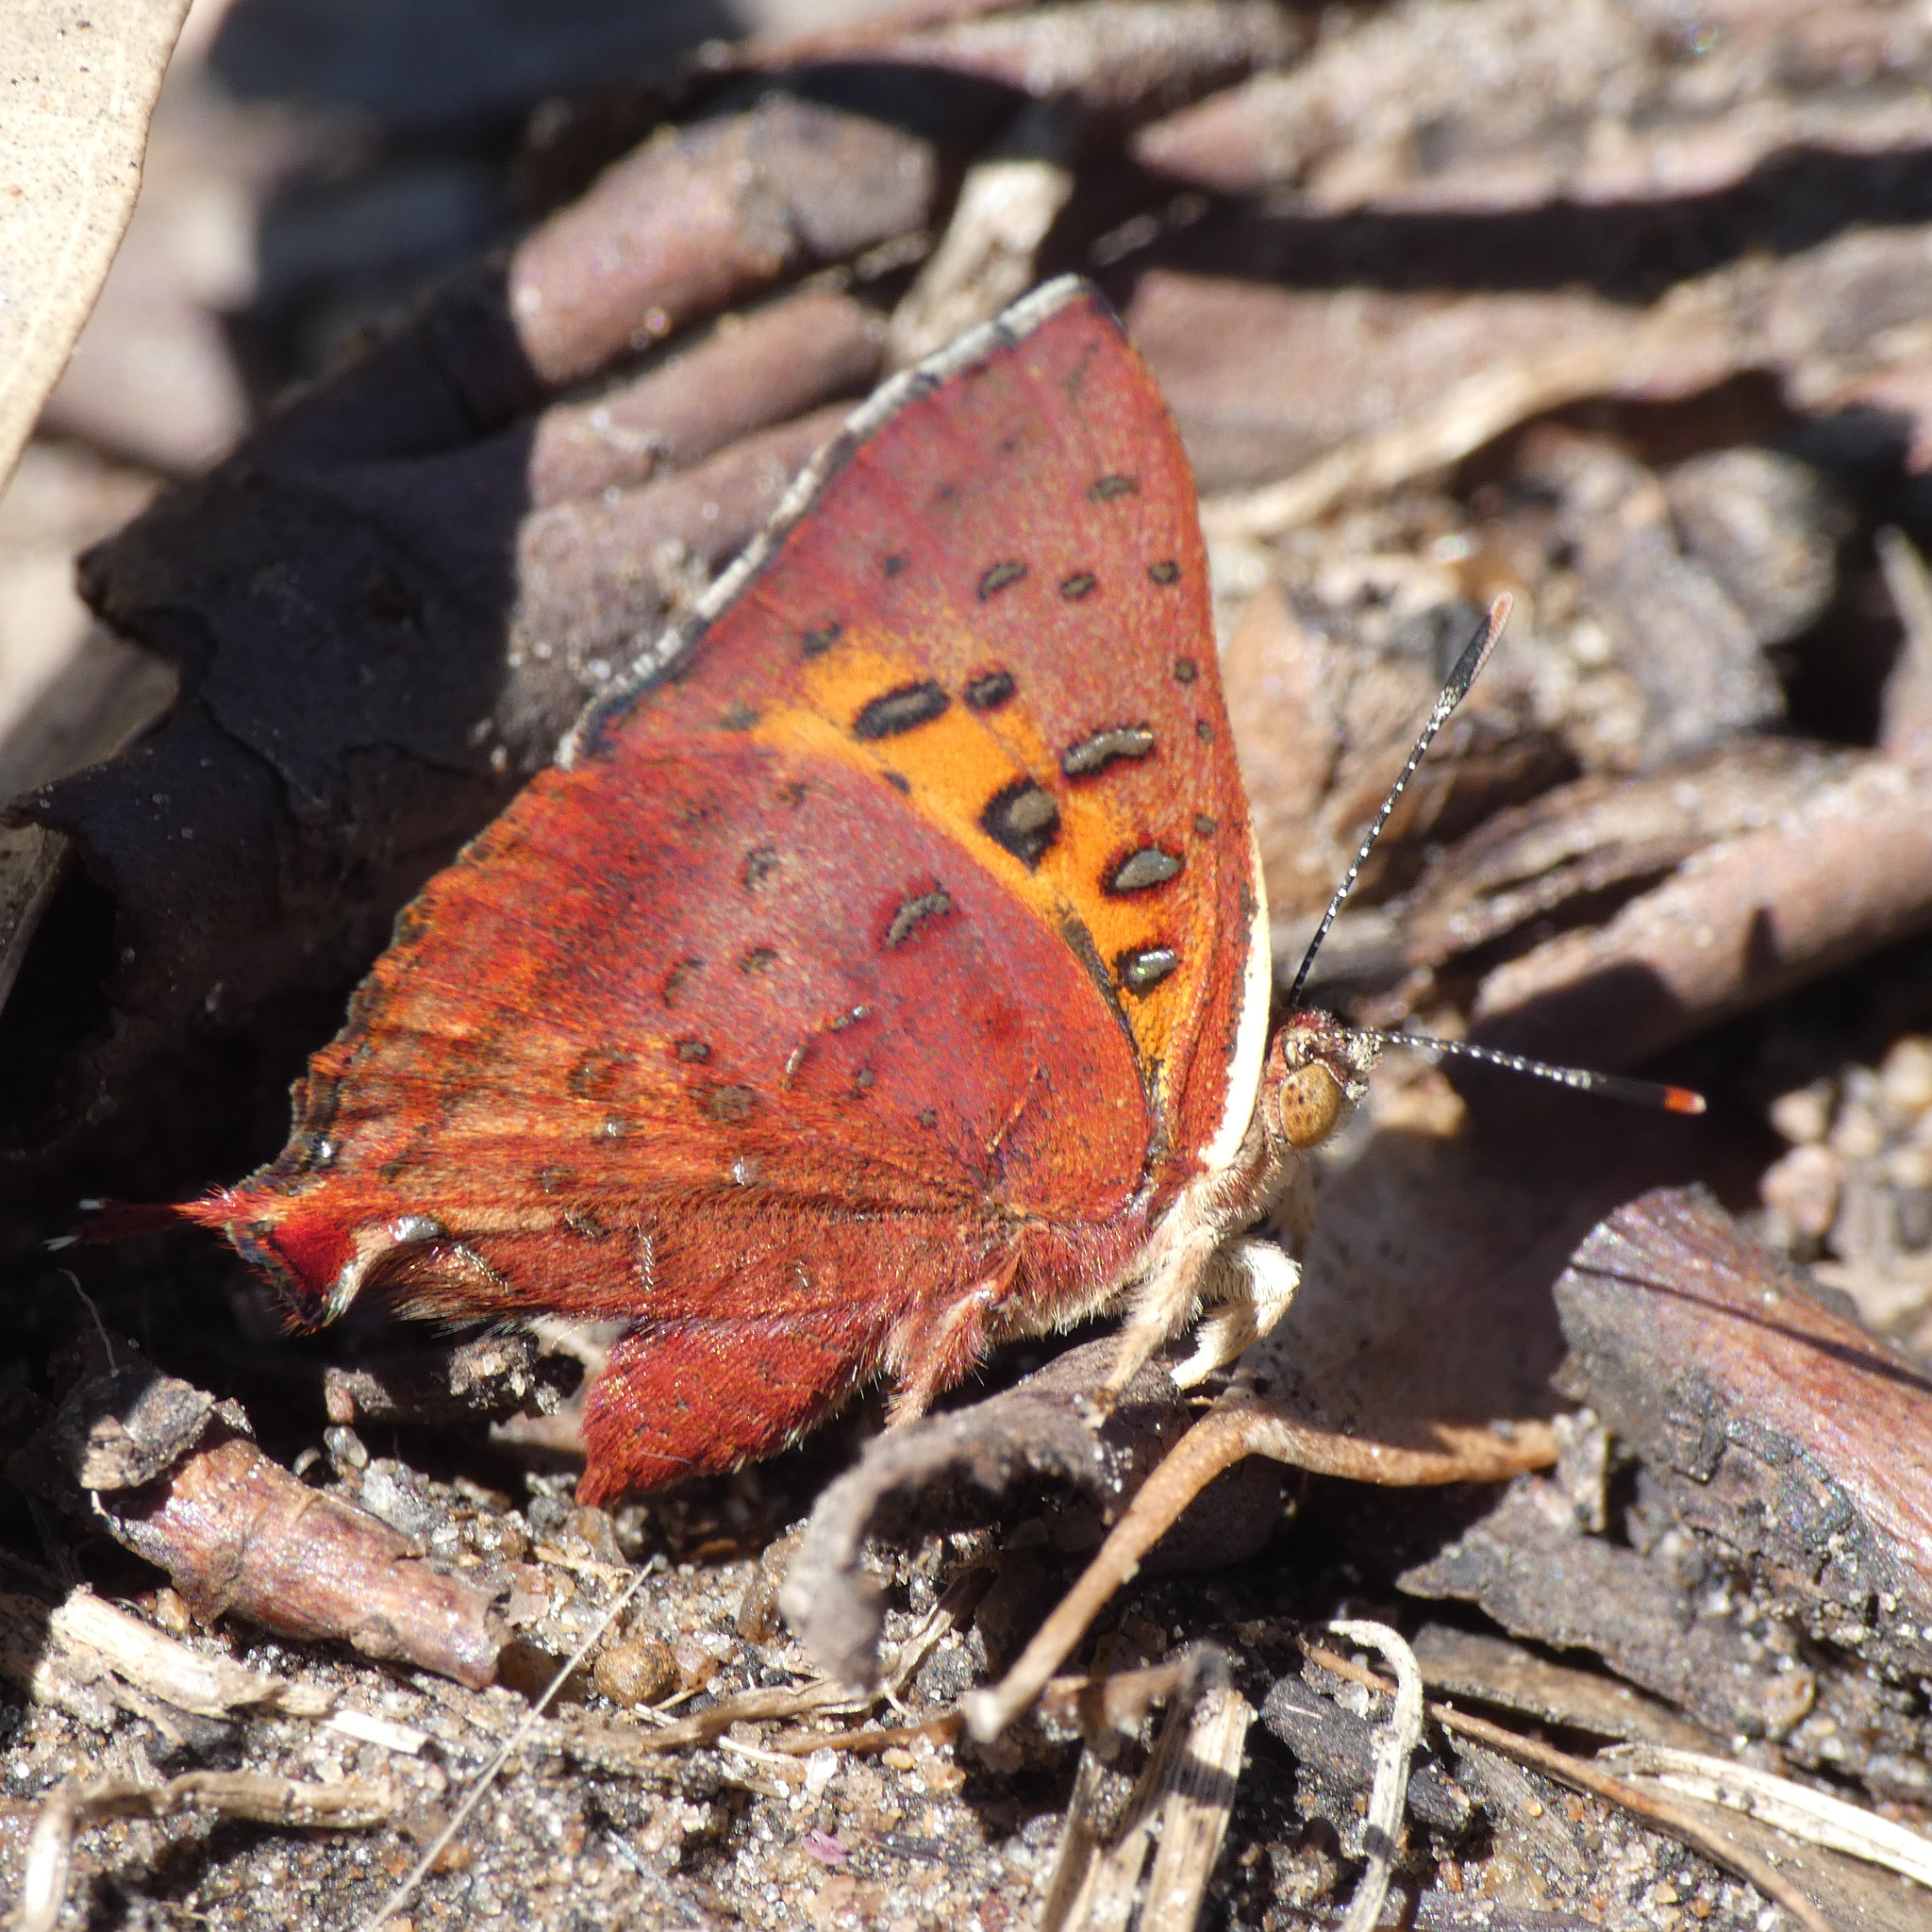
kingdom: Animalia
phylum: Arthropoda
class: Insecta
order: Lepidoptera
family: Lycaenidae
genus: Axiocerses
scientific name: Axiocerses perion
